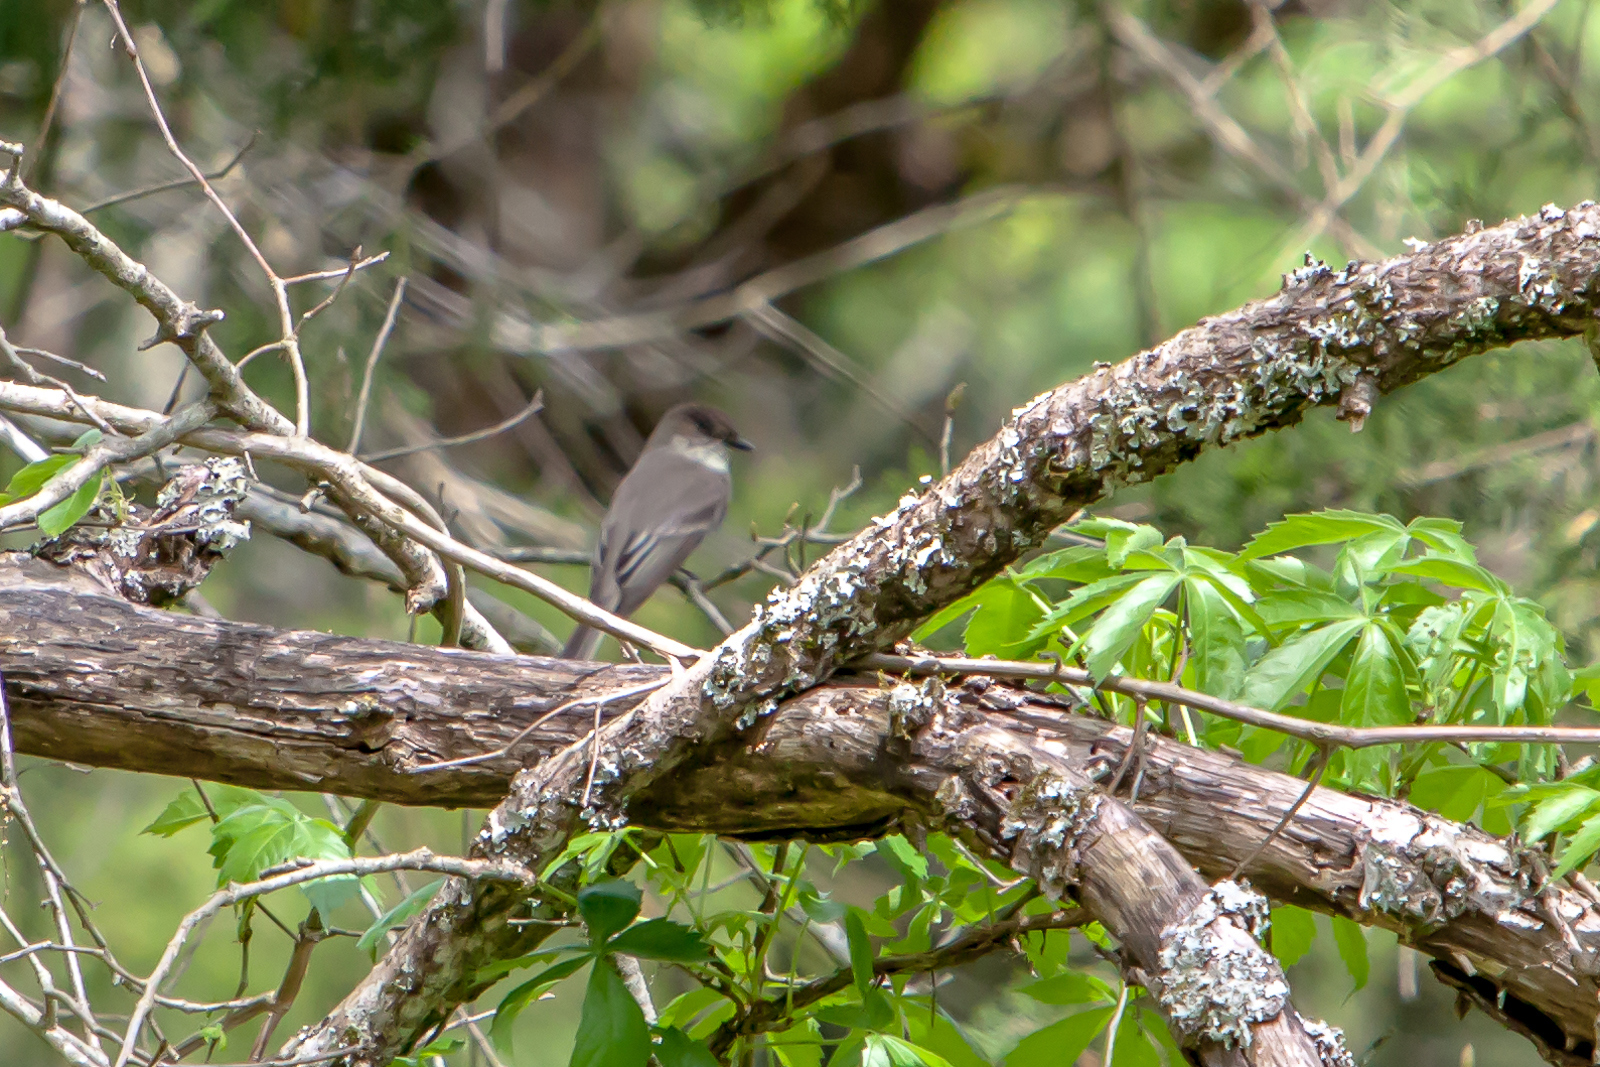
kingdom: Animalia
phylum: Chordata
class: Aves
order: Passeriformes
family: Tyrannidae
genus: Sayornis
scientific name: Sayornis phoebe
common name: Eastern phoebe
